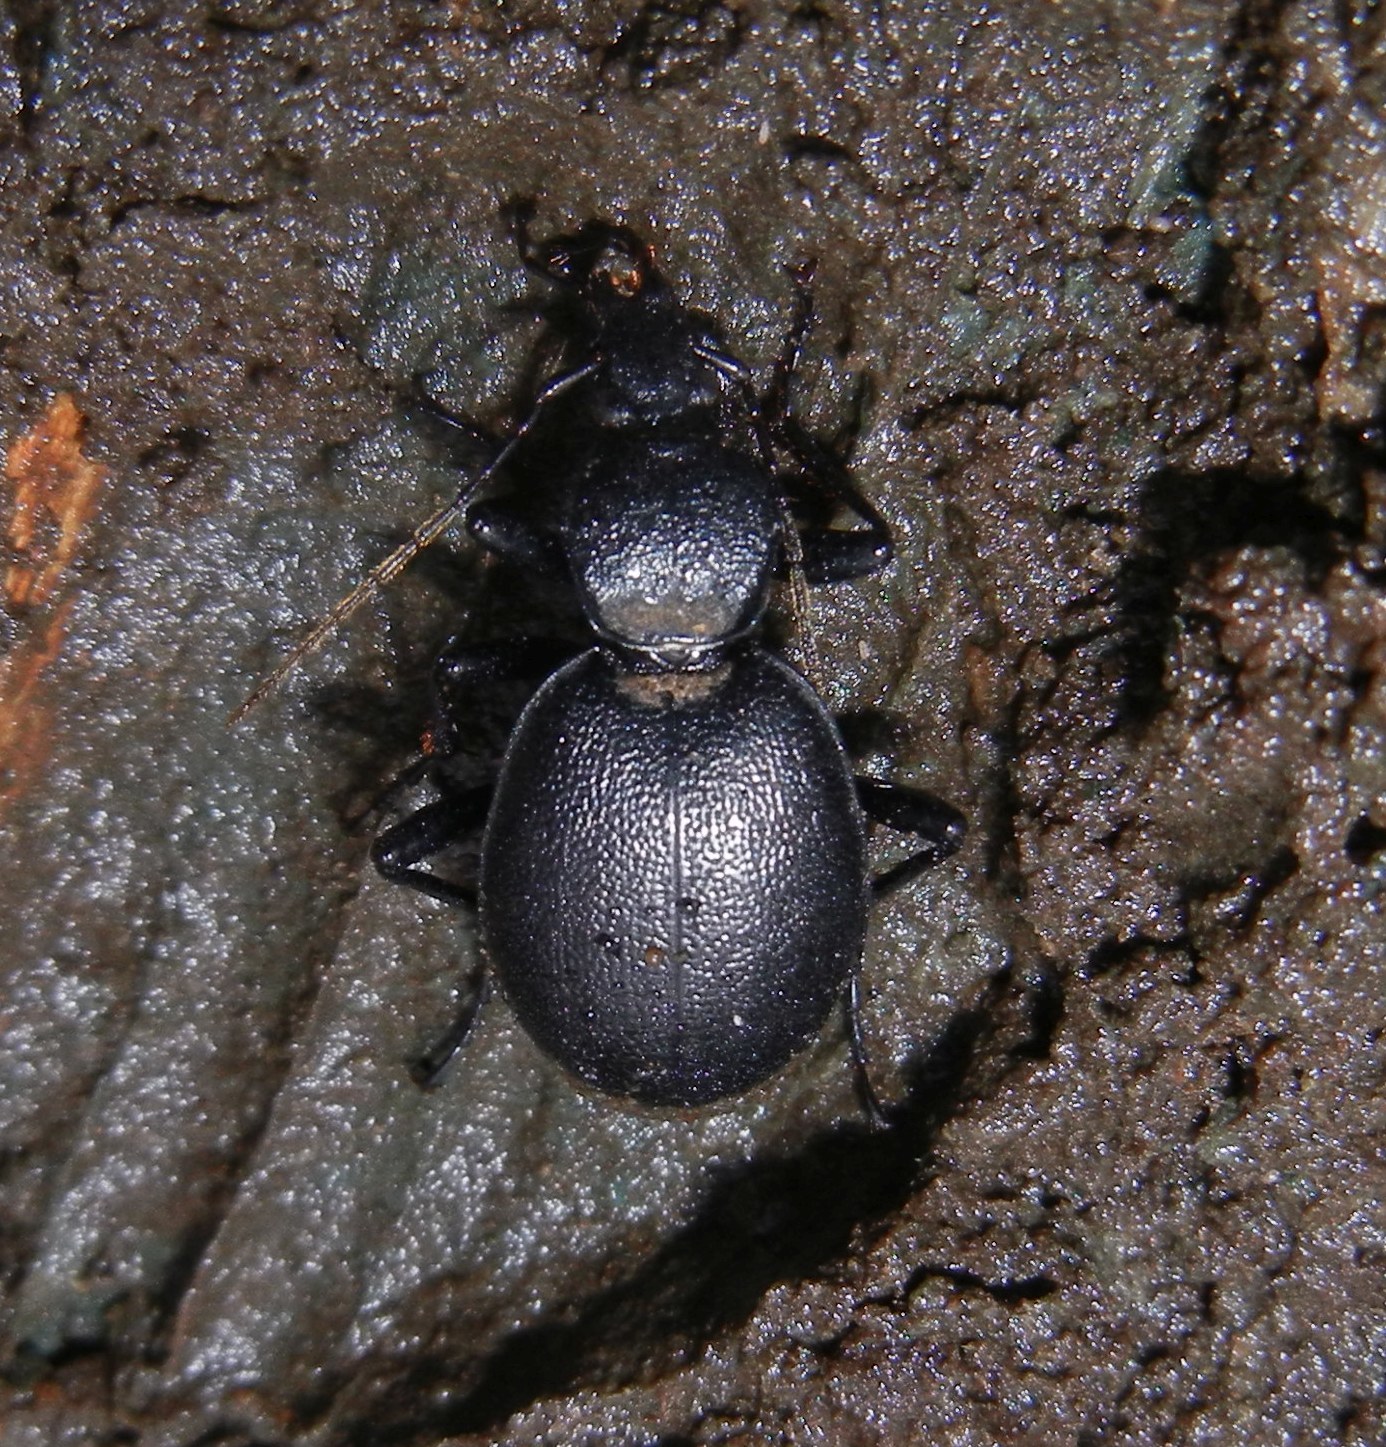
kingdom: Animalia
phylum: Arthropoda
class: Insecta
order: Coleoptera
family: Carabidae
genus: Cychrus
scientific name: Cychrus caraboides
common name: Snail hunter
